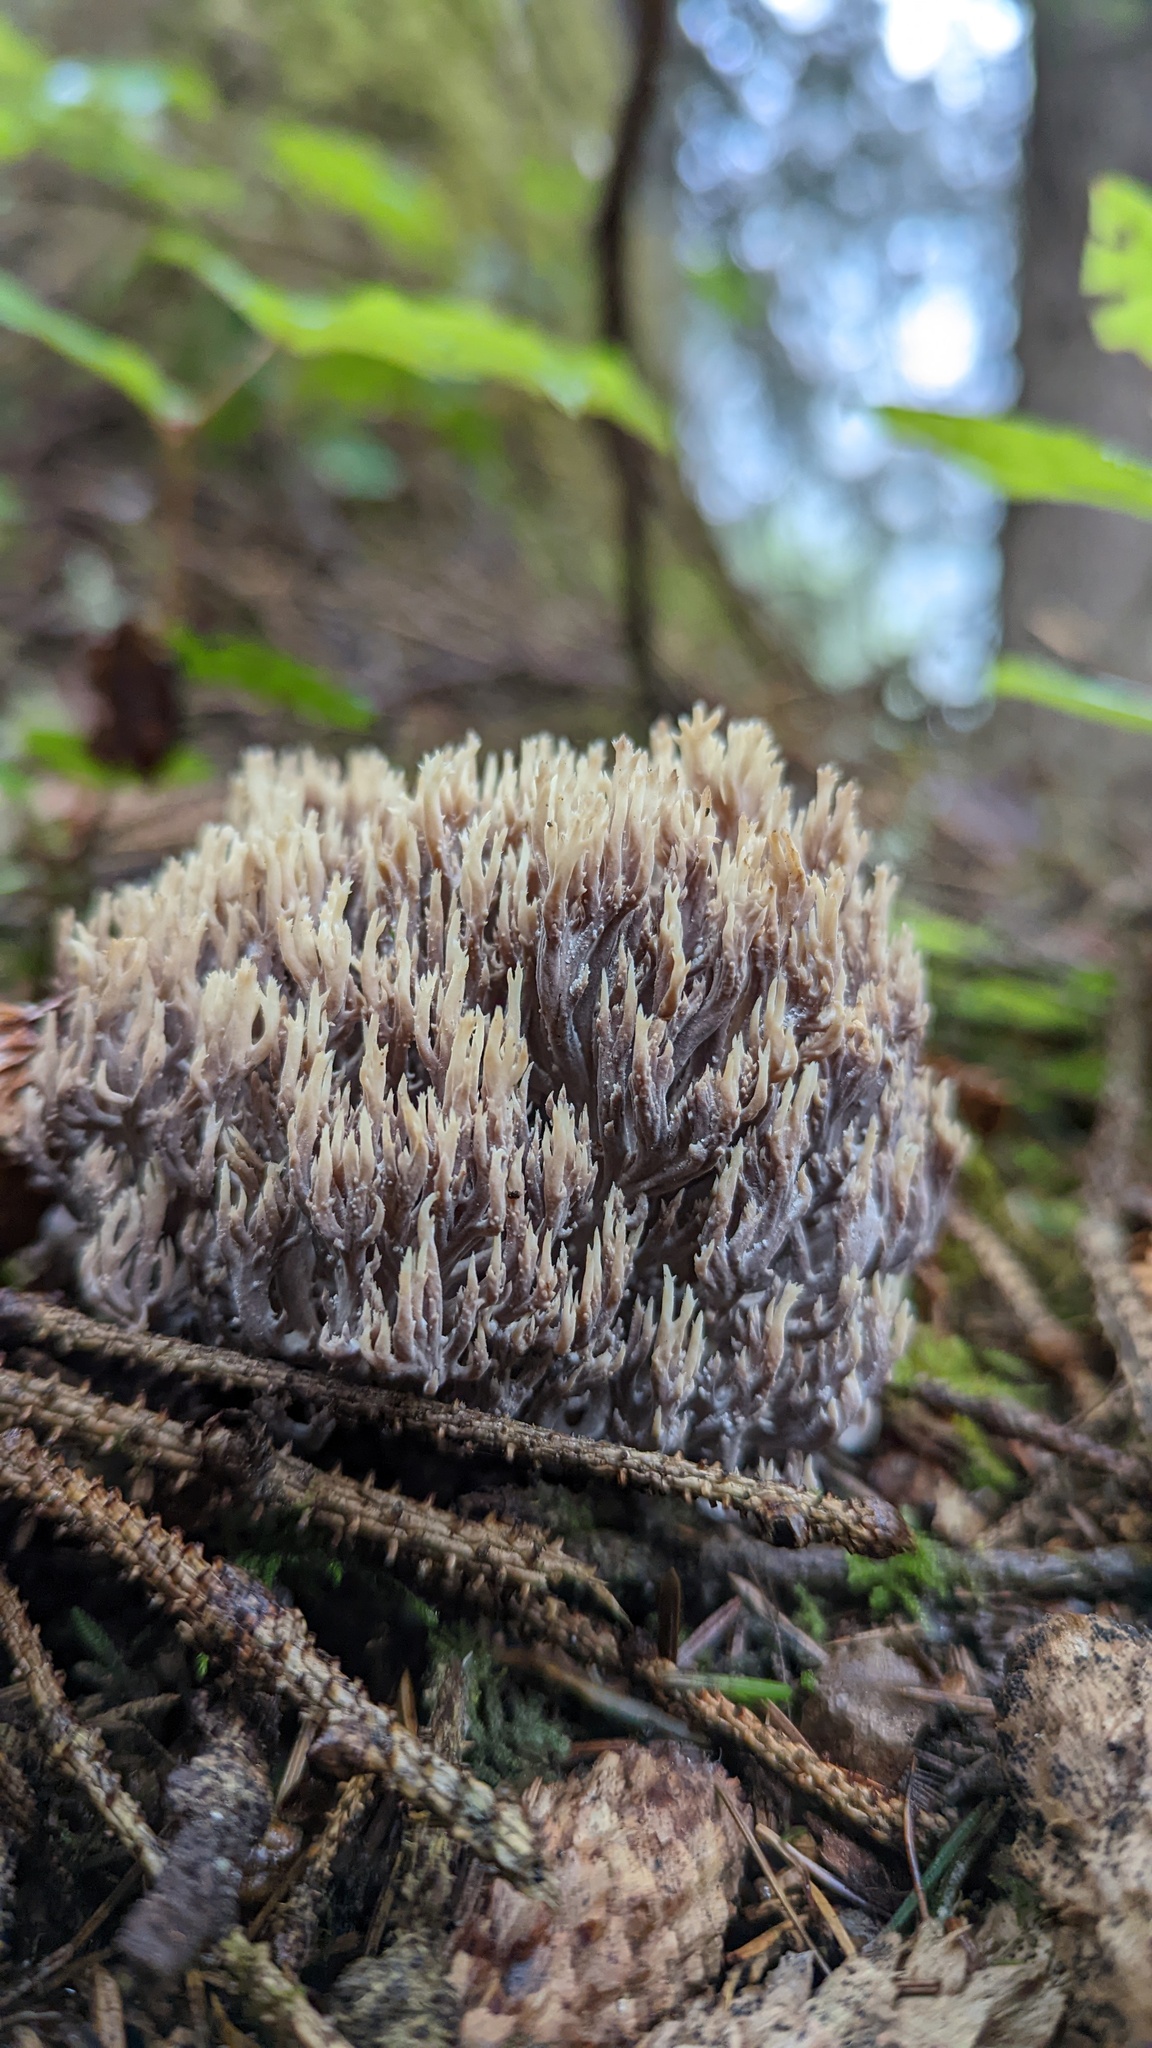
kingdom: Fungi
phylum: Ascomycota
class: Sordariomycetes
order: Sordariales
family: Helminthosphaeriaceae
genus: Helminthosphaeria
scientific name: Helminthosphaeria clavariarum
